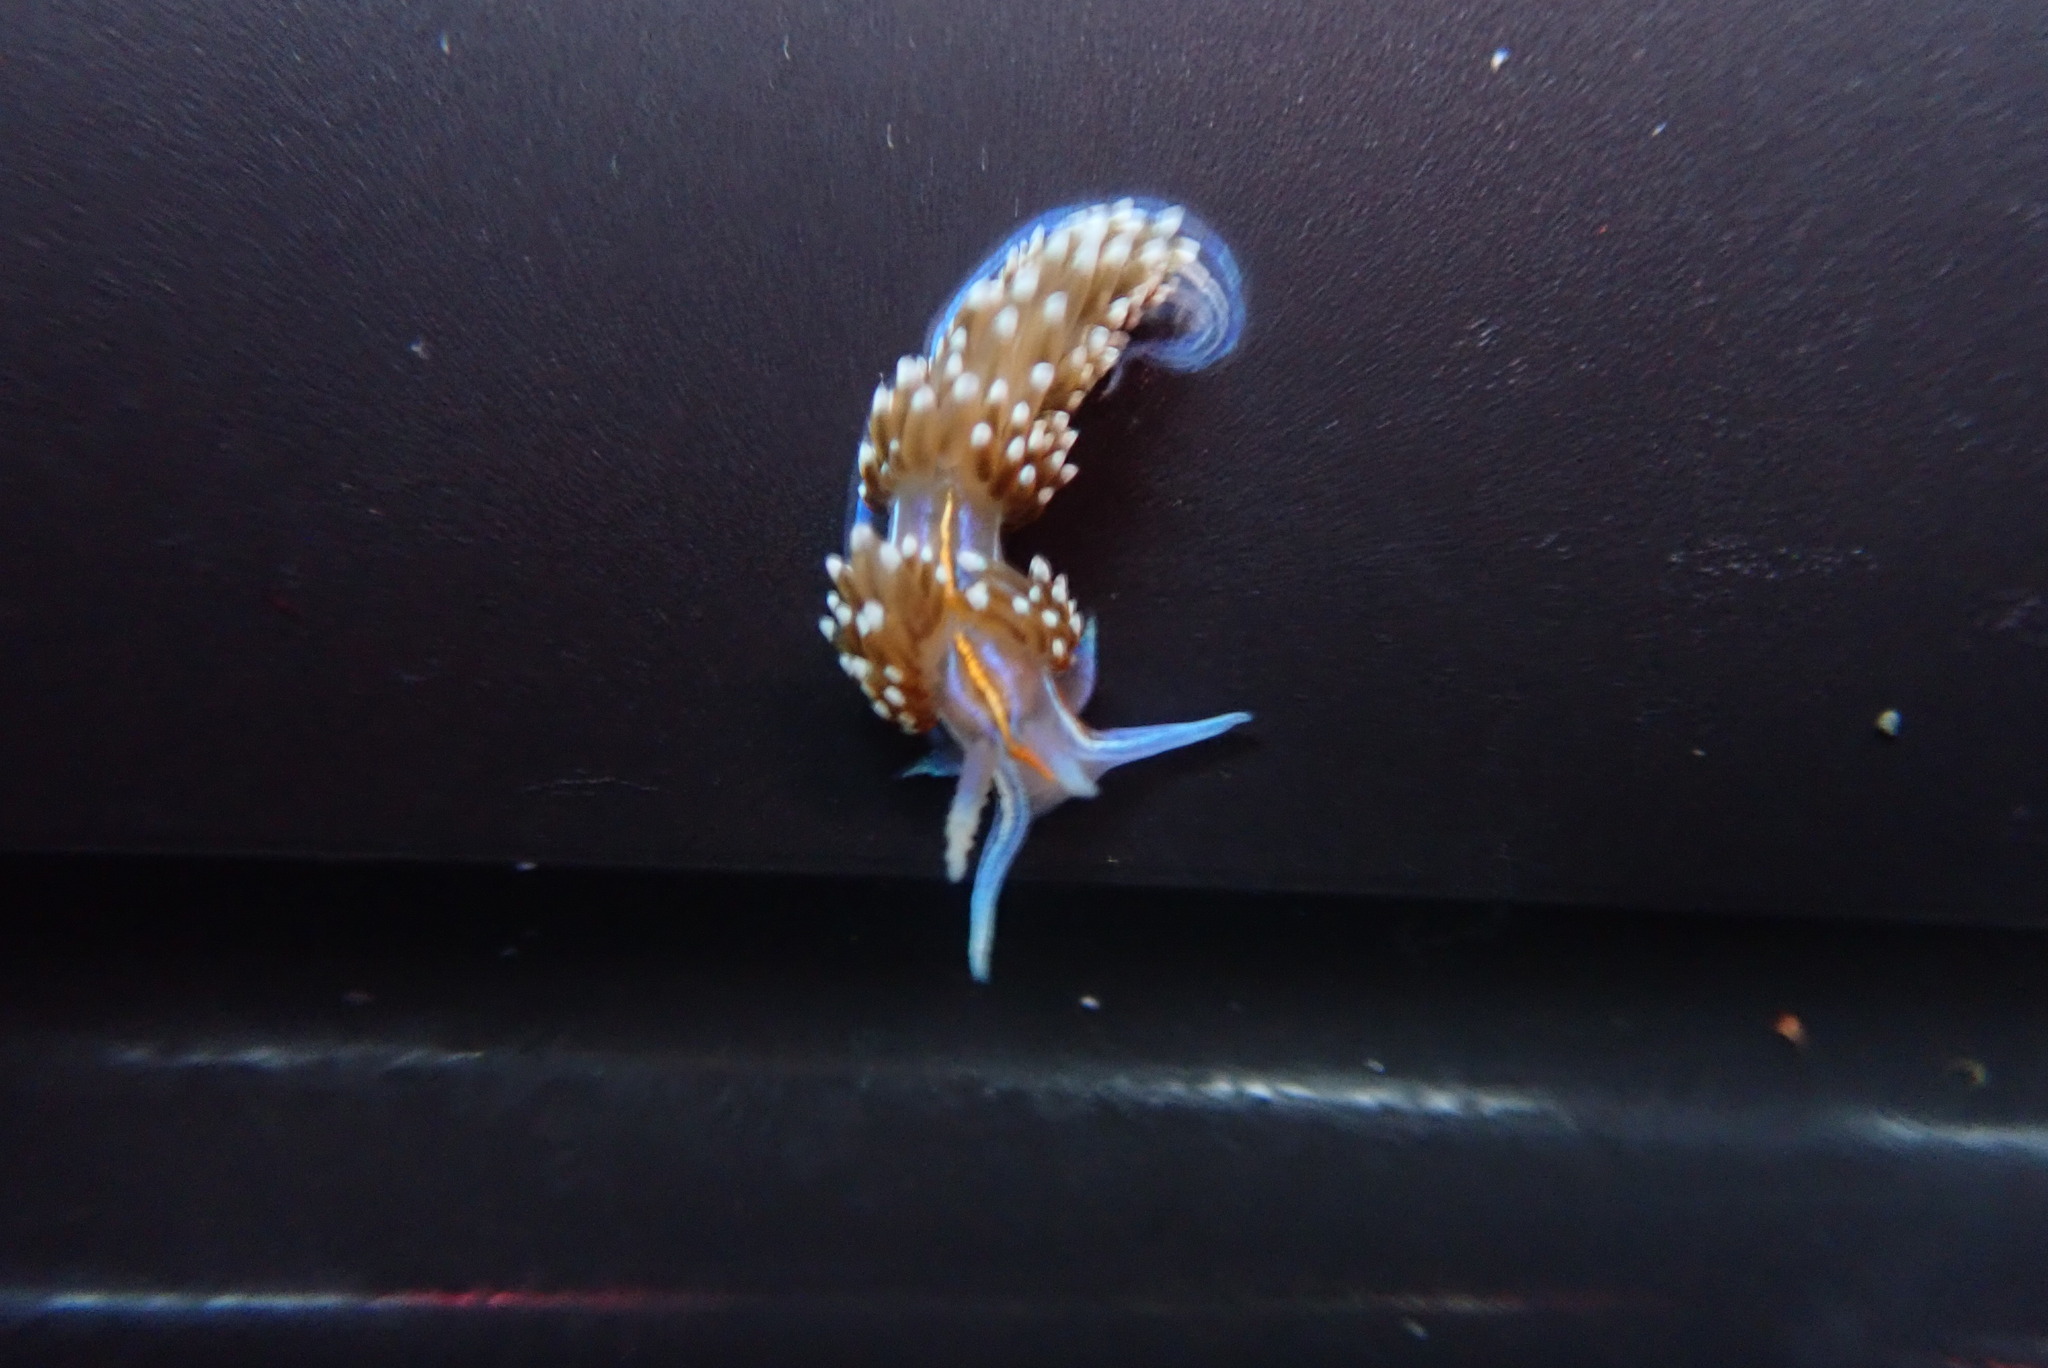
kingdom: Animalia
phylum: Mollusca
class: Gastropoda
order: Nudibranchia
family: Myrrhinidae
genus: Hermissenda
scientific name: Hermissenda opalescens
